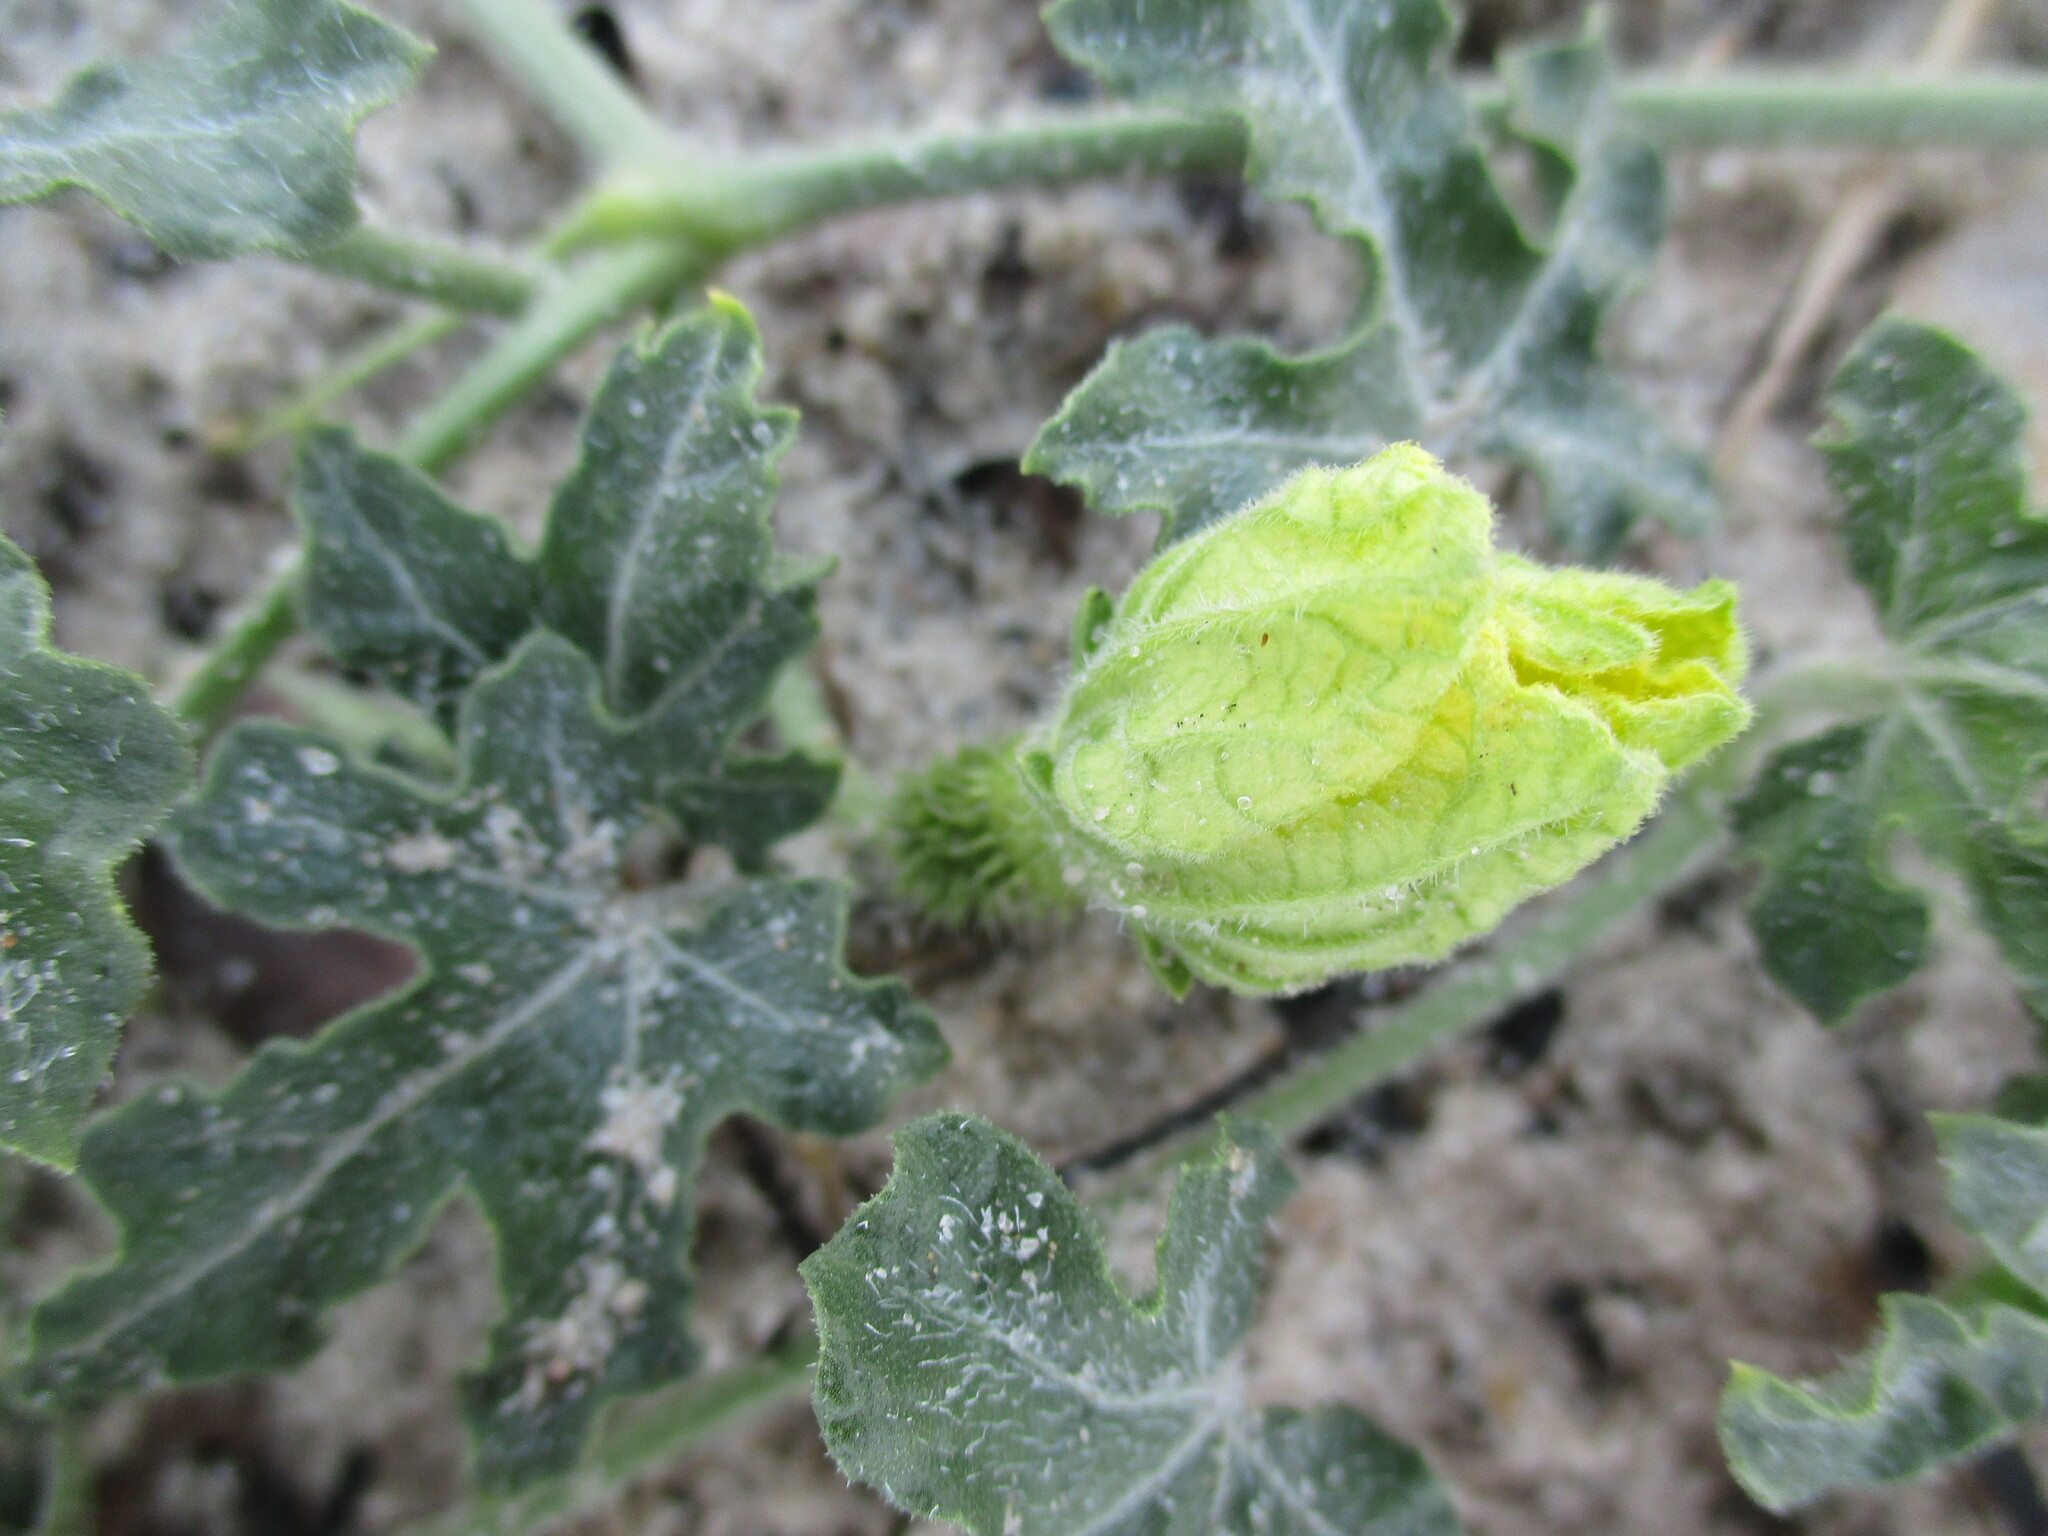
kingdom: Plantae
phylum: Tracheophyta
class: Magnoliopsida
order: Cucurbitales
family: Cucurbitaceae
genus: Citrullus
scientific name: Citrullus naudinianus
